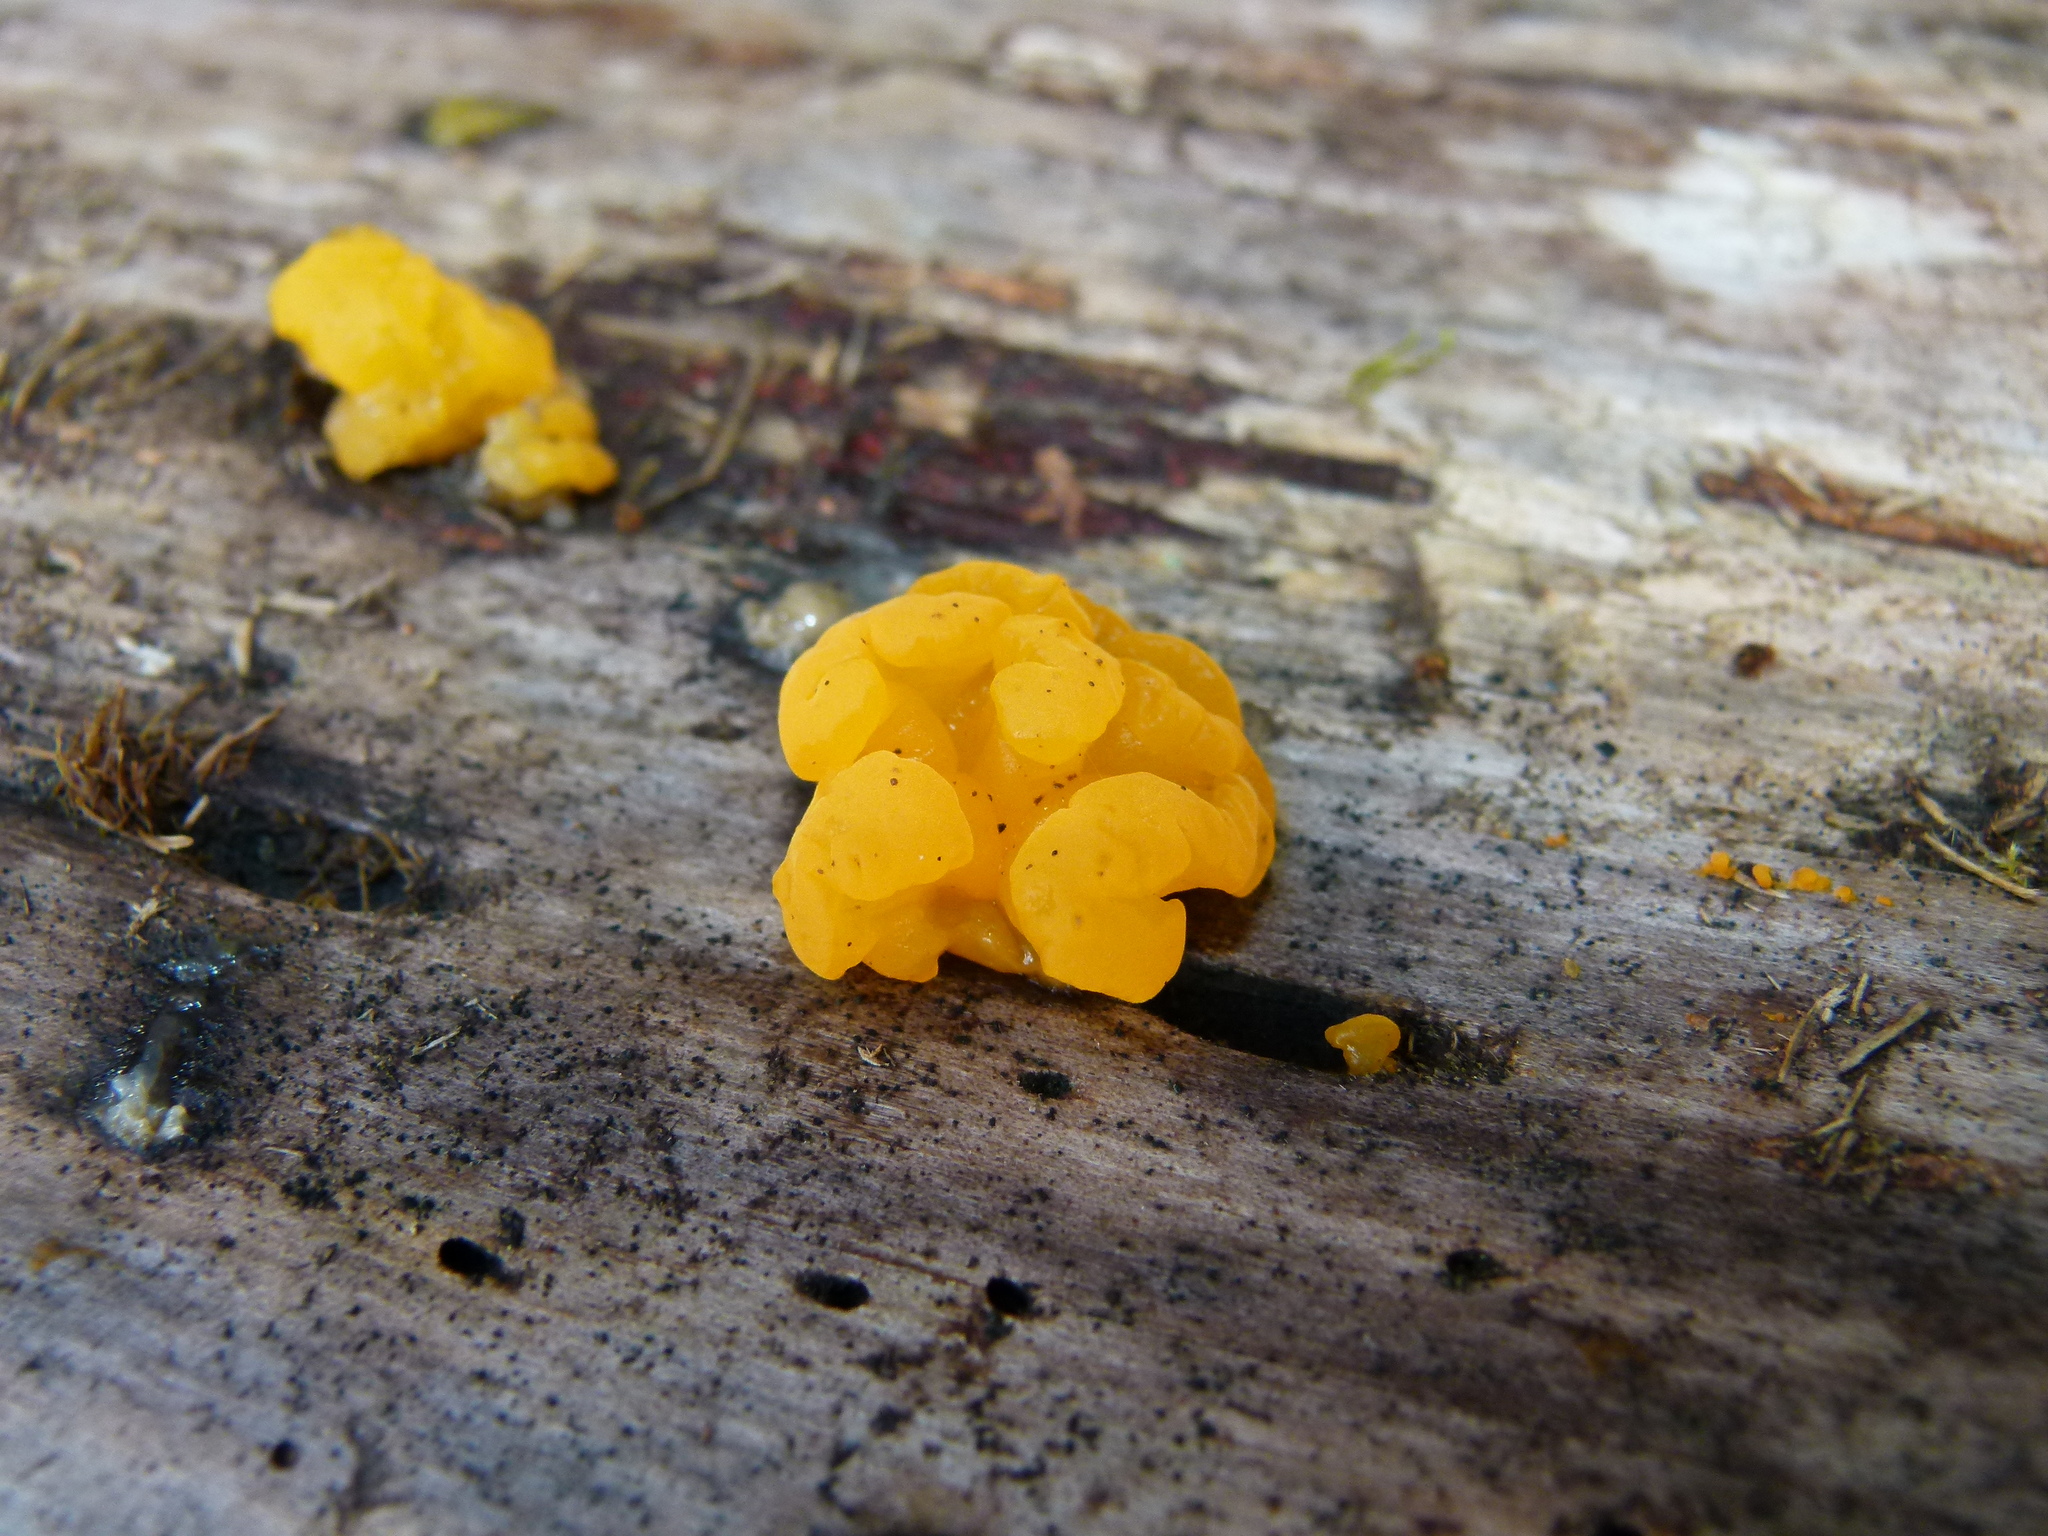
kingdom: Fungi
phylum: Basidiomycota
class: Tremellomycetes
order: Tremellales
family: Tremellaceae
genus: Tremella
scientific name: Tremella mesenterica
